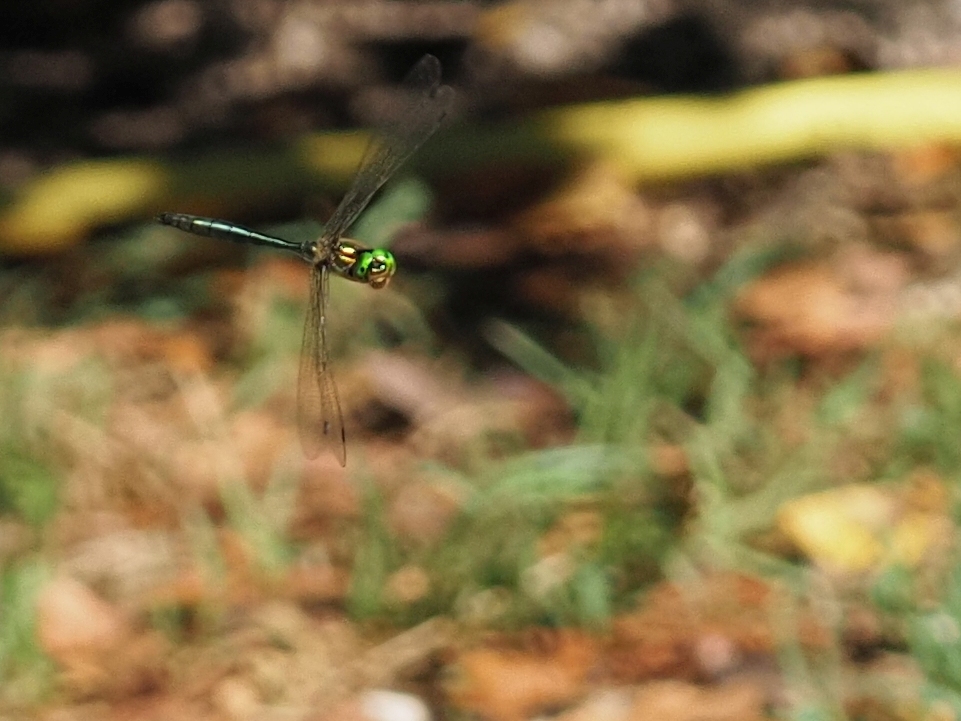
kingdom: Animalia
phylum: Arthropoda
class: Insecta
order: Odonata
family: Corduliidae
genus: Somatochlora
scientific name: Somatochlora meridionalis
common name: Balkan emerald
